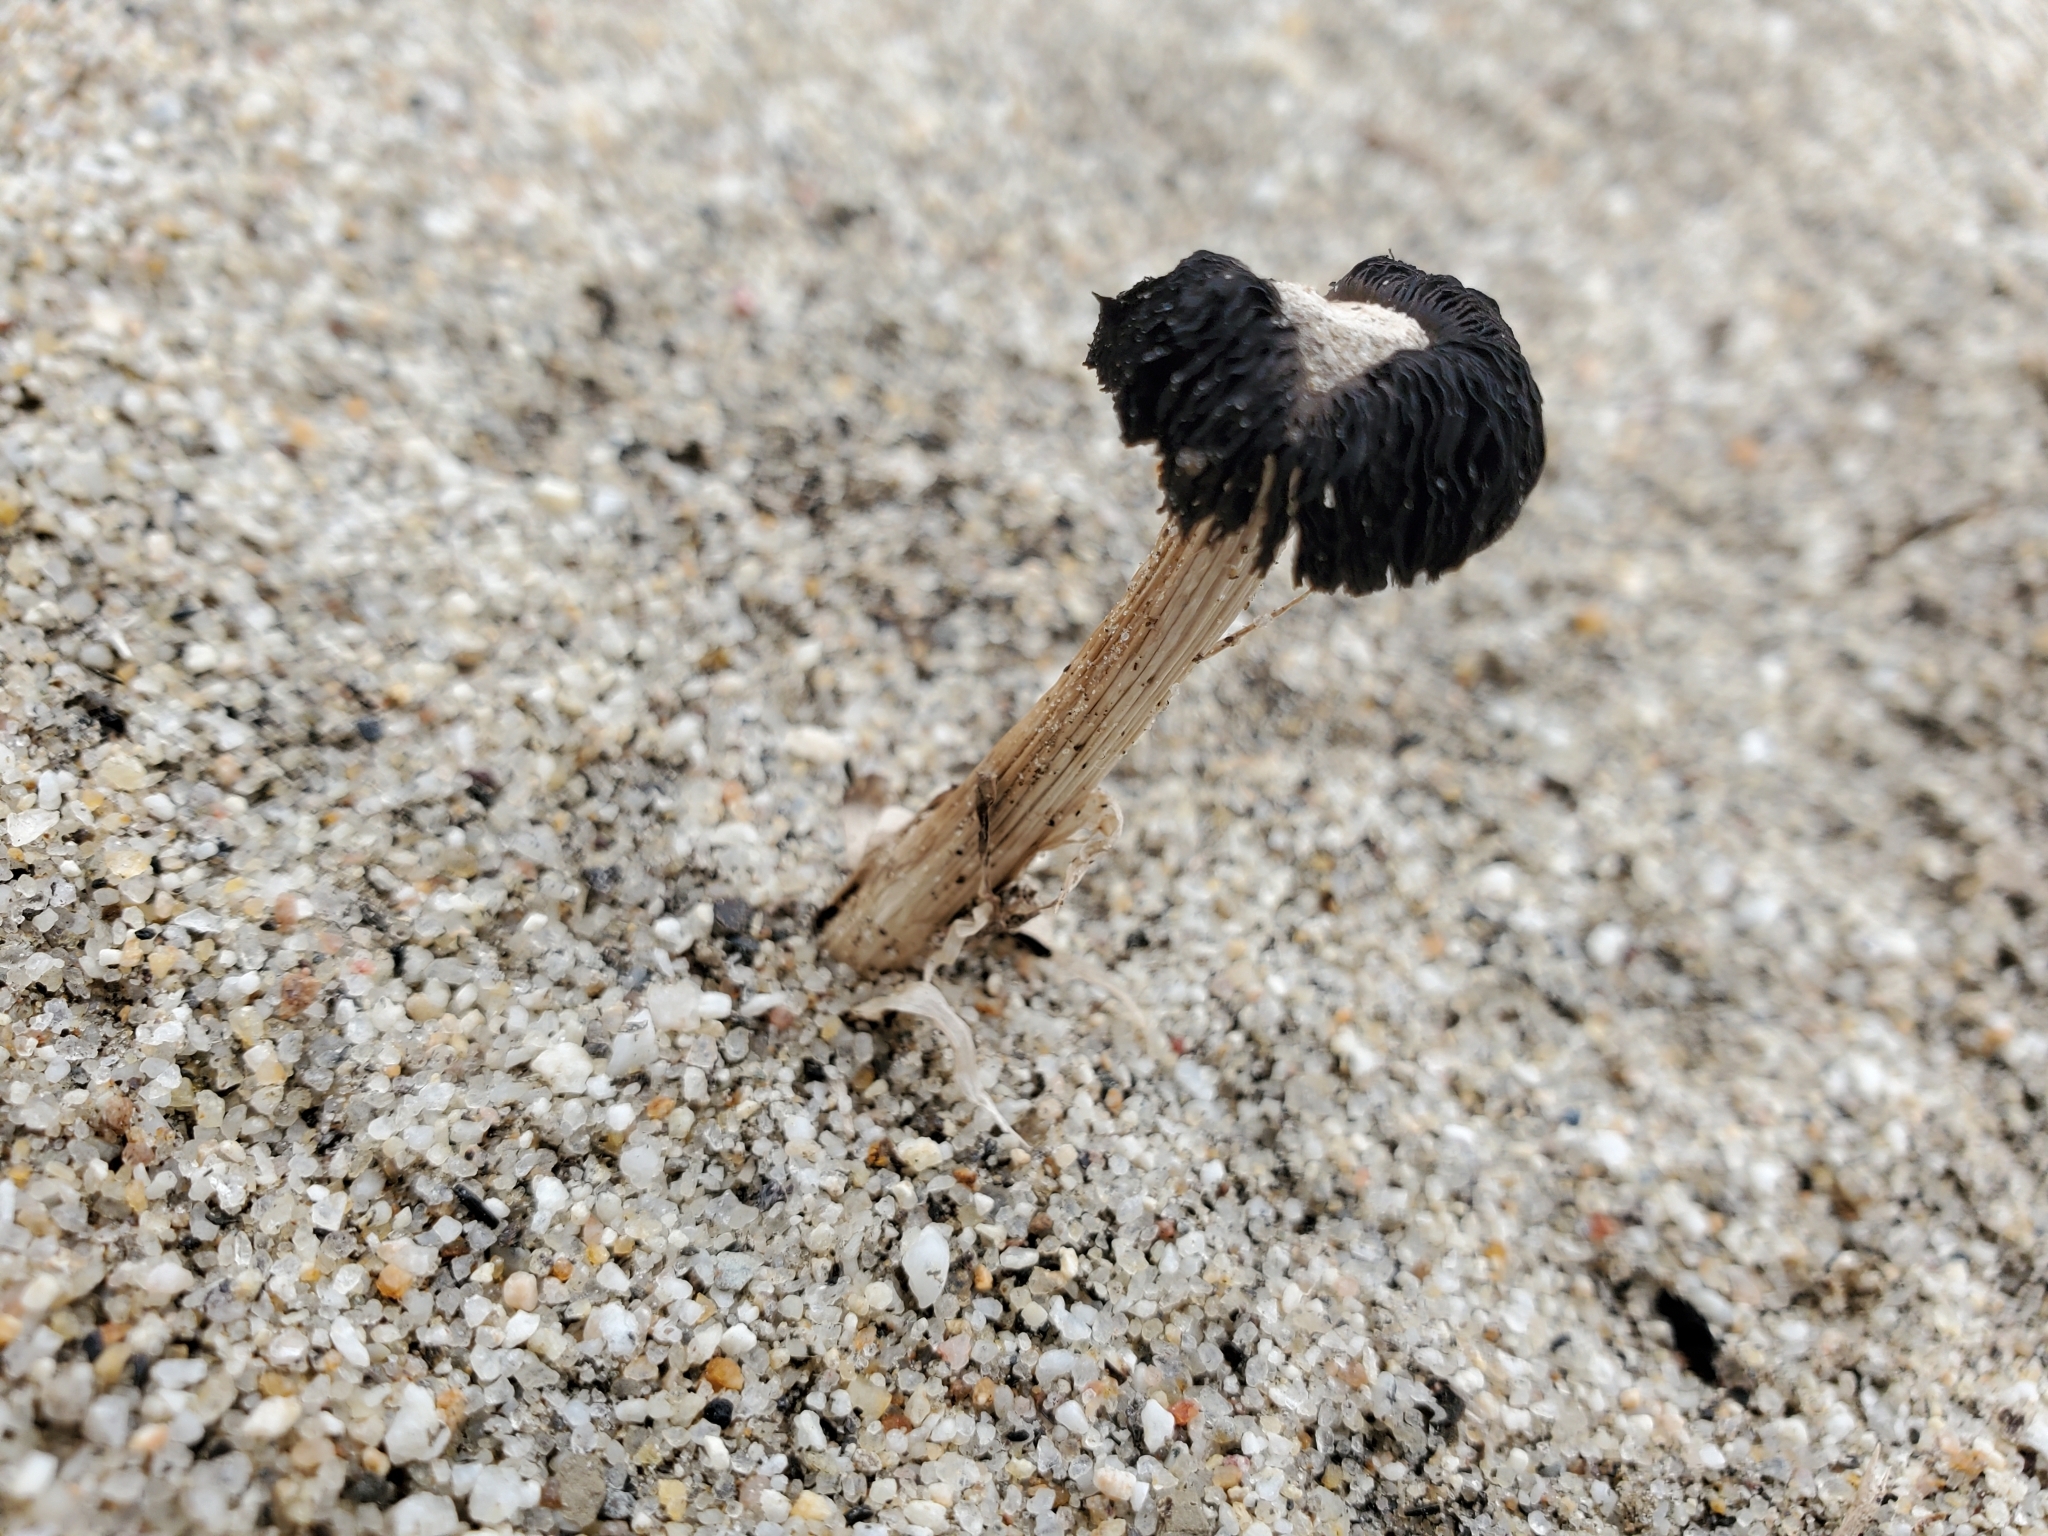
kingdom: Fungi
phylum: Basidiomycota
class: Agaricomycetes
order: Agaricales
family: Agaricaceae
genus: Montagnea
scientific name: Montagnea arenaria
